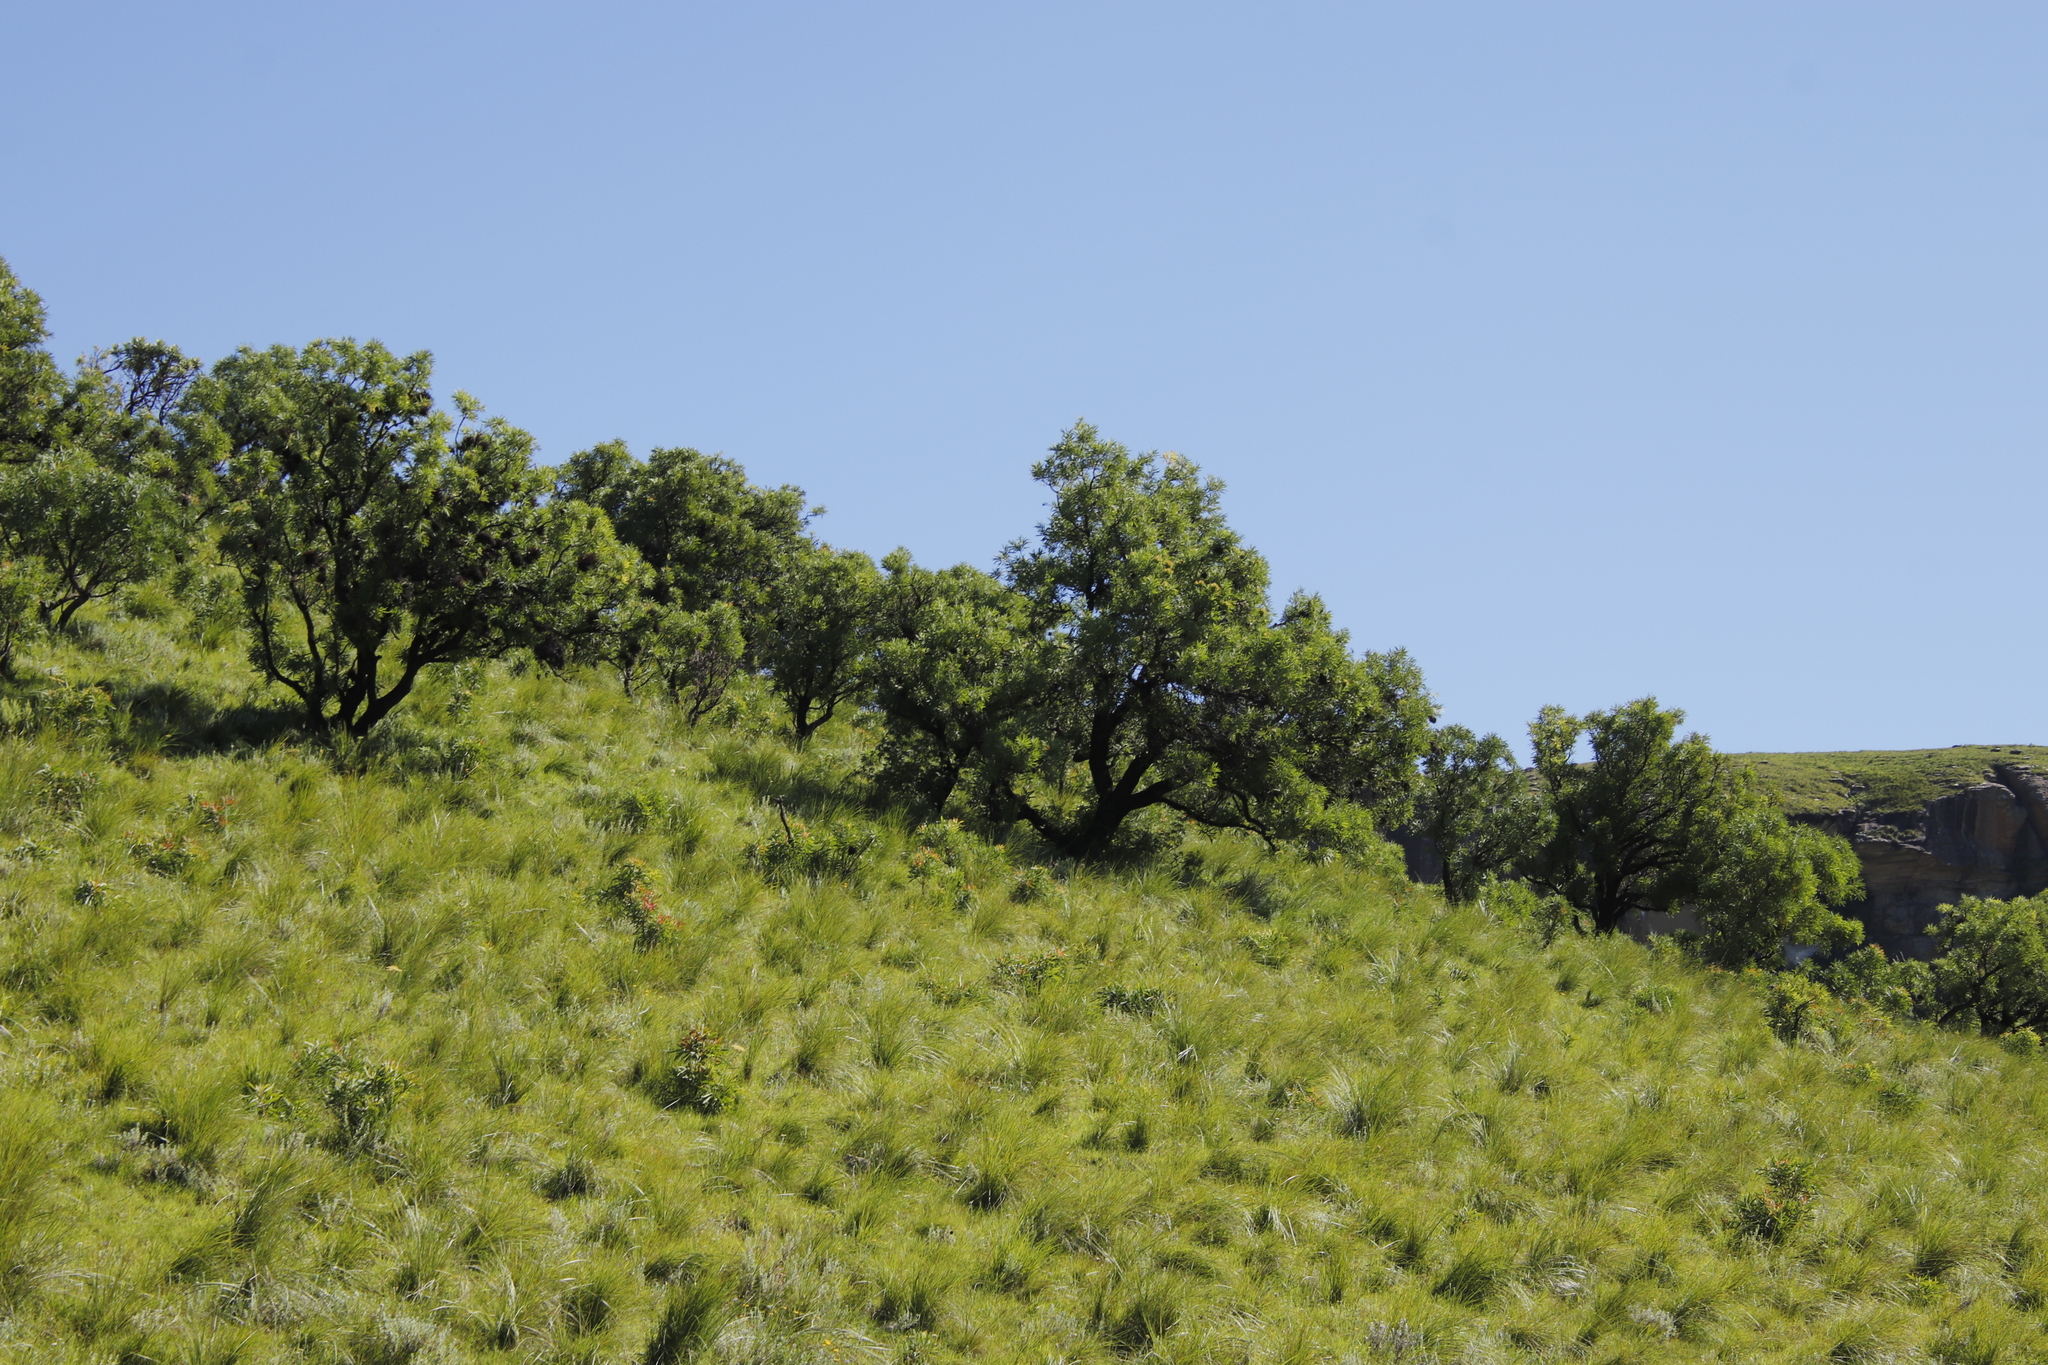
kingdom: Plantae
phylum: Tracheophyta
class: Magnoliopsida
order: Proteales
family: Proteaceae
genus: Protea
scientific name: Protea caffra
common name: Common sugarbush
